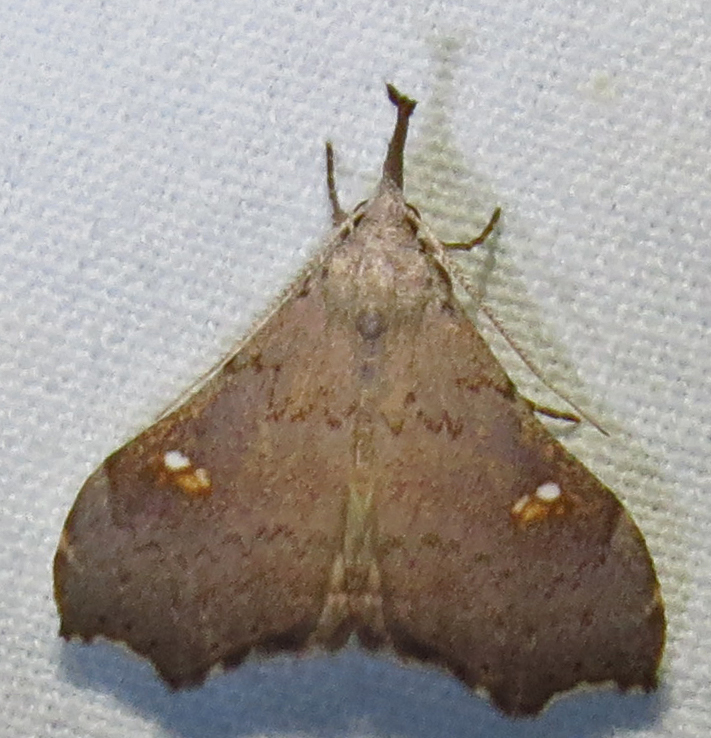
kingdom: Animalia
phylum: Arthropoda
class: Insecta
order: Lepidoptera
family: Erebidae
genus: Redectis
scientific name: Redectis vitrea
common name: White-spotted redectis
